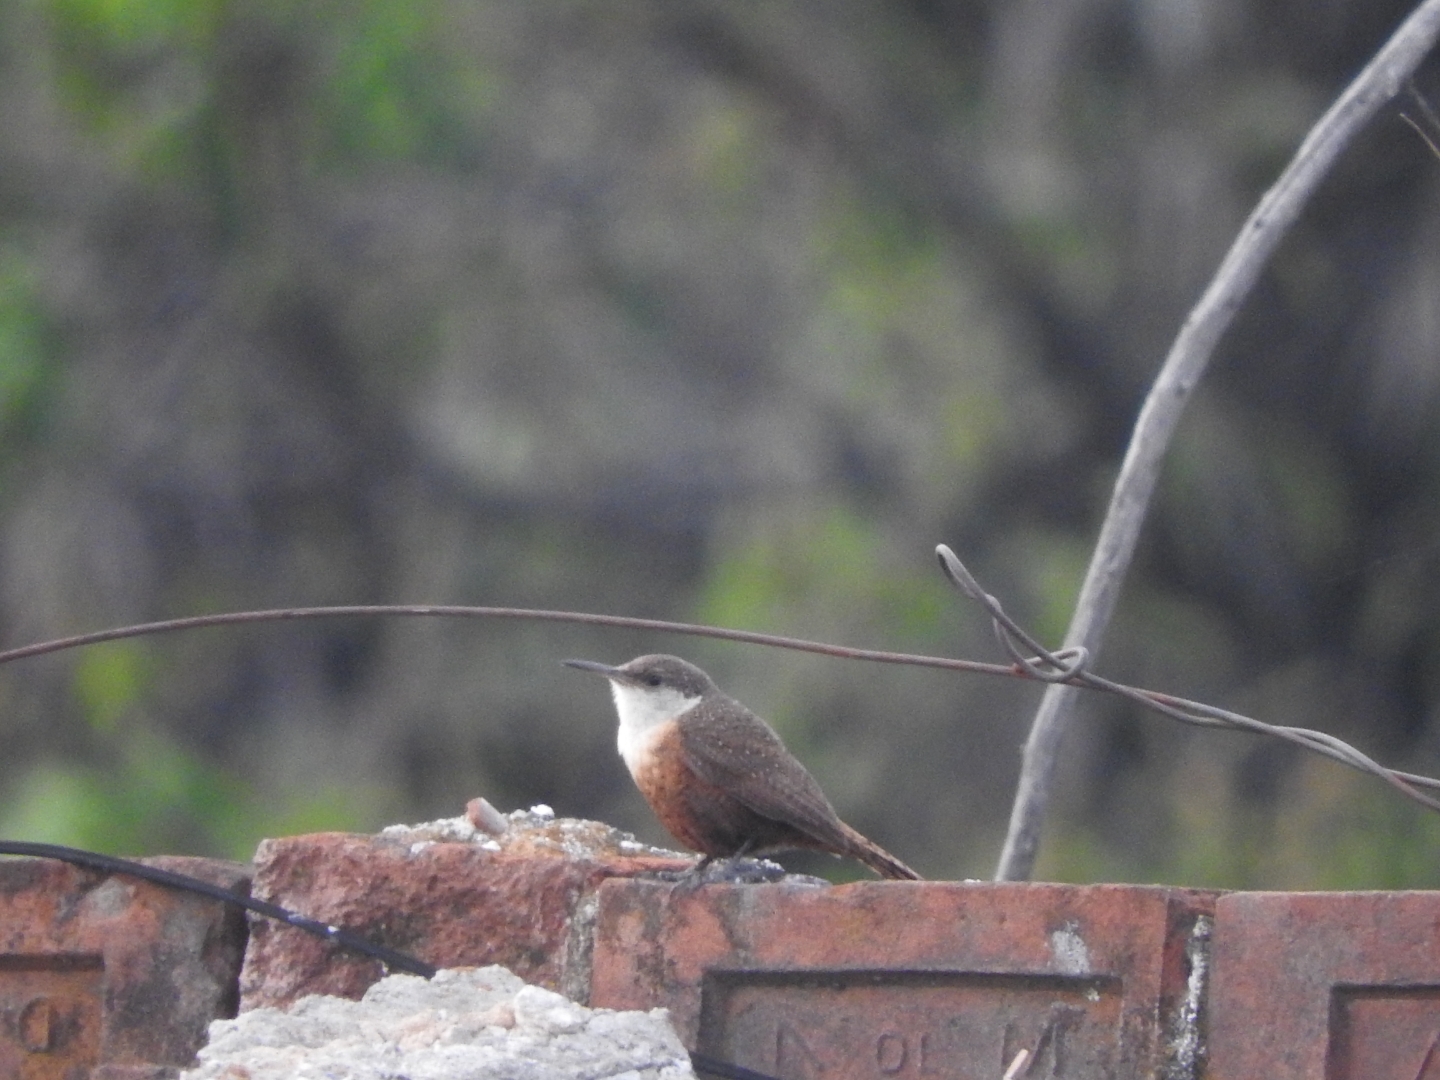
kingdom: Animalia
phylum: Chordata
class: Aves
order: Passeriformes
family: Troglodytidae
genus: Catherpes
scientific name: Catherpes mexicanus
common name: Canyon wren
